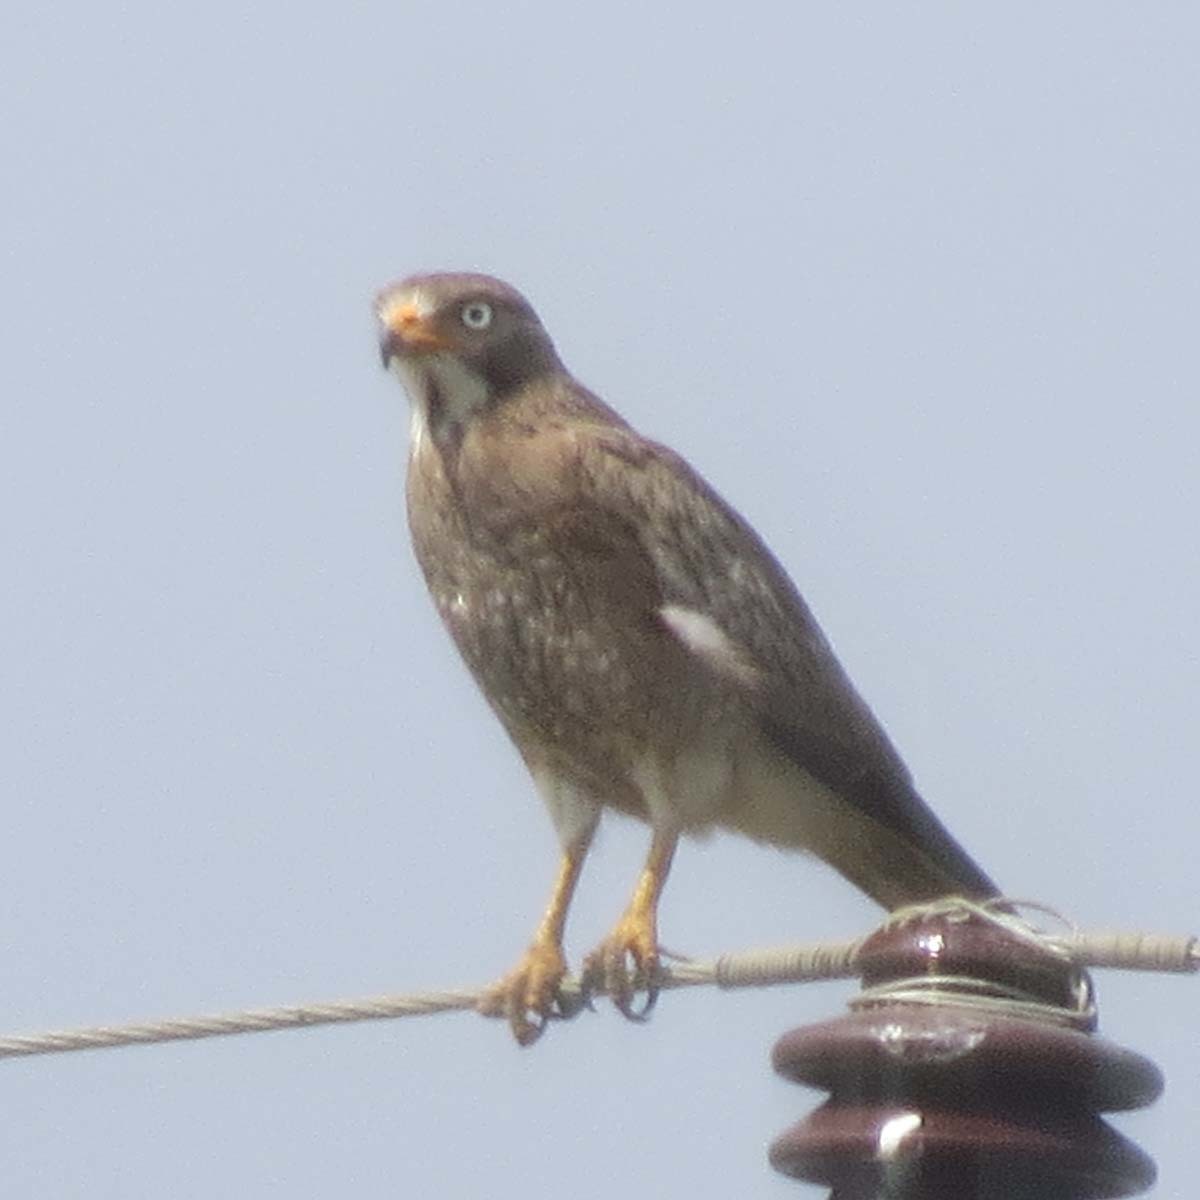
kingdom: Animalia
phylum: Chordata
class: Aves
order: Accipitriformes
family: Accipitridae
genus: Butastur
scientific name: Butastur teesa
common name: White-eyed buzzard
